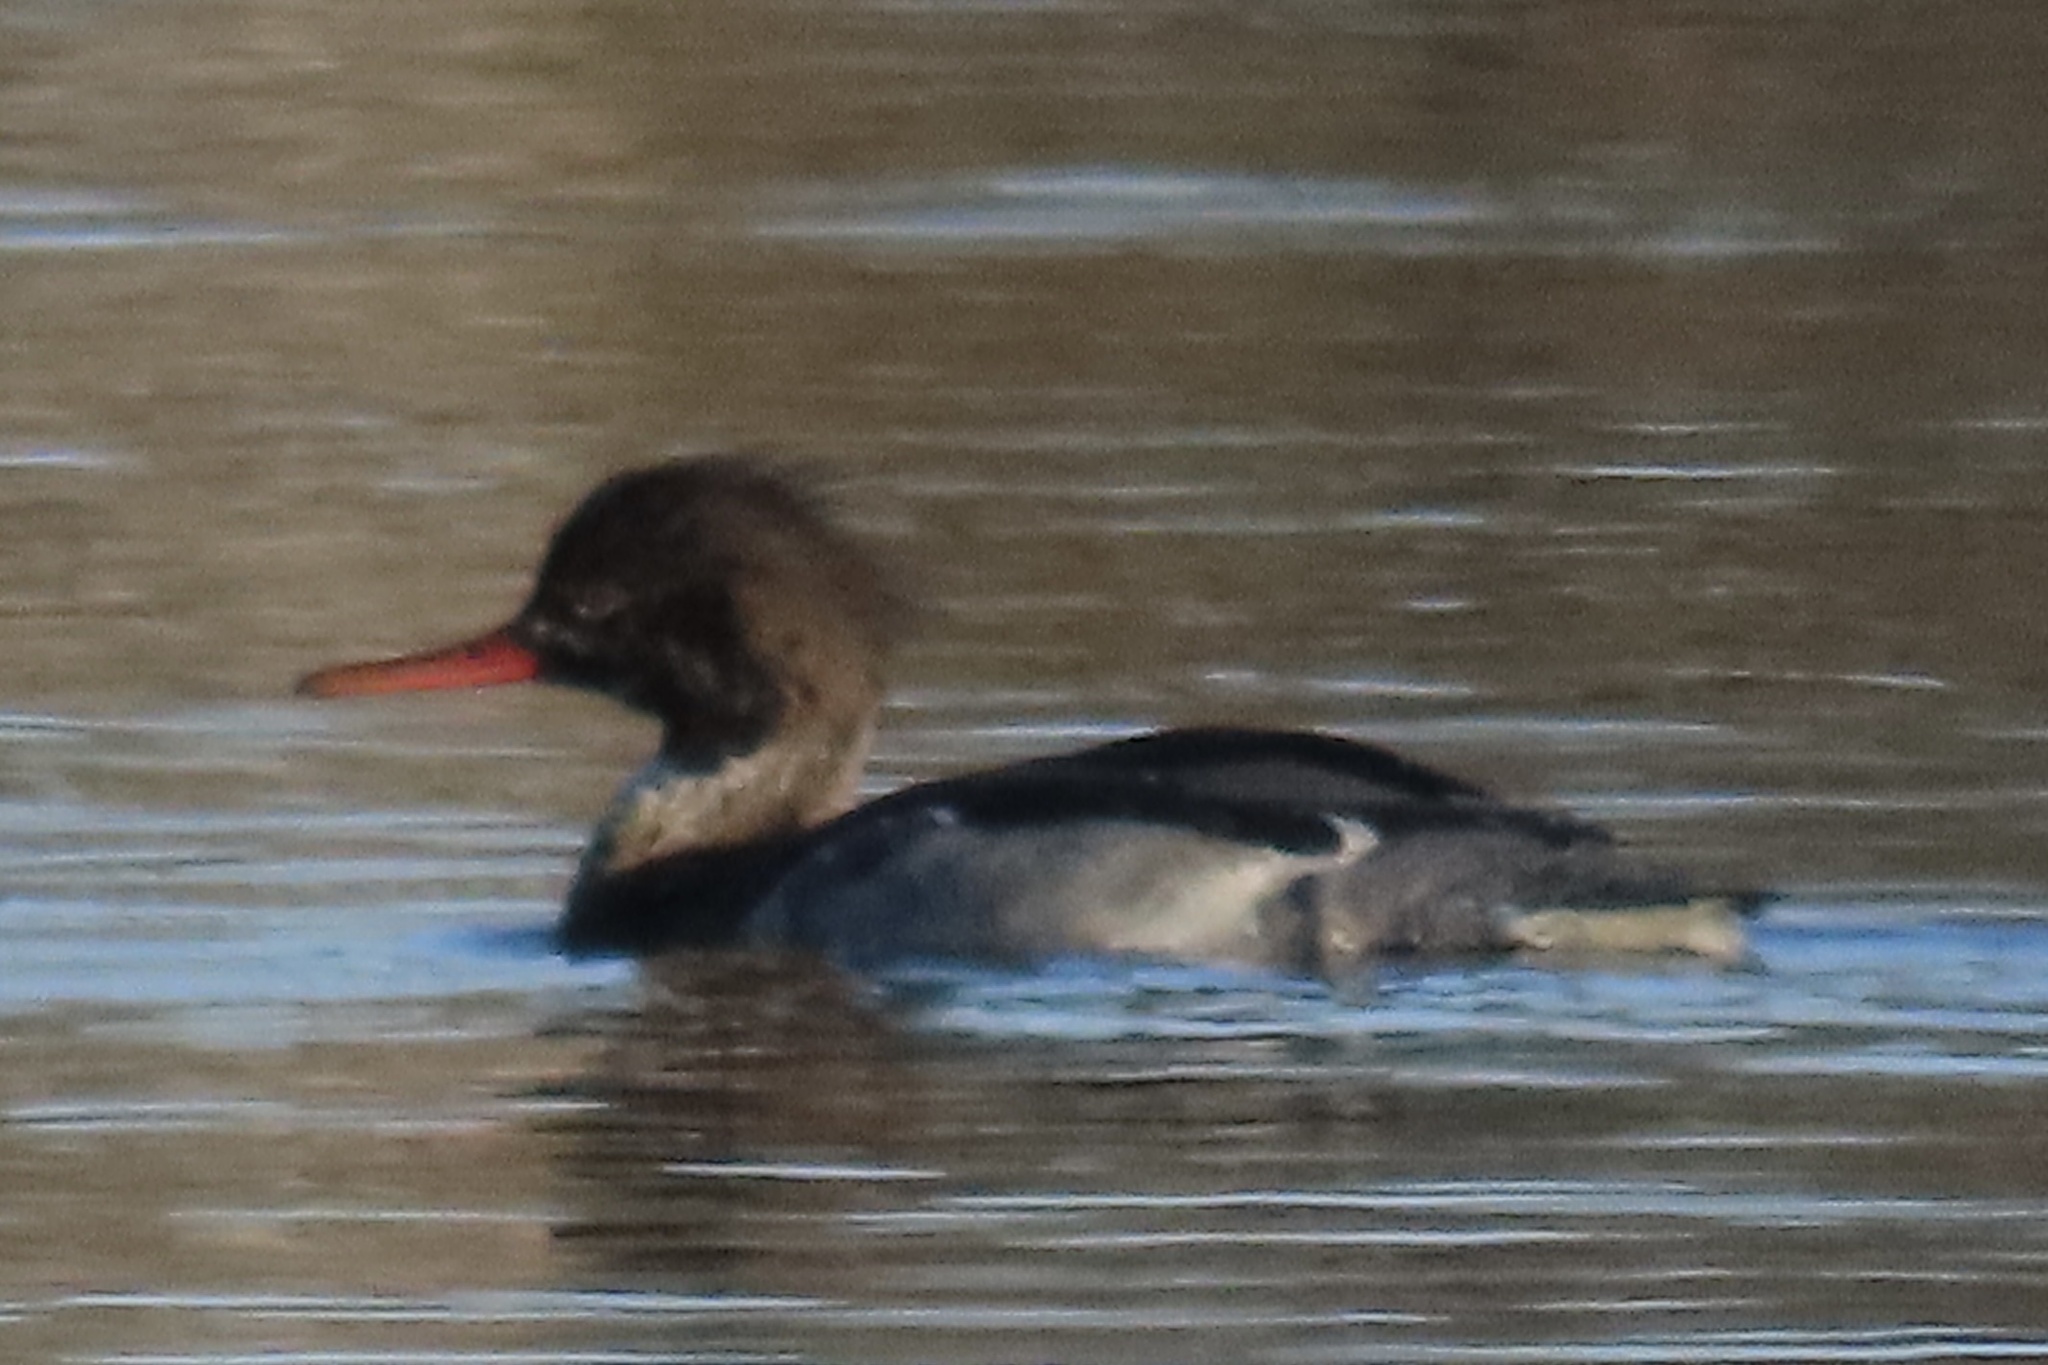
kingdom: Animalia
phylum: Chordata
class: Aves
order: Anseriformes
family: Anatidae
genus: Mergus
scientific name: Mergus serrator
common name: Red-breasted merganser
